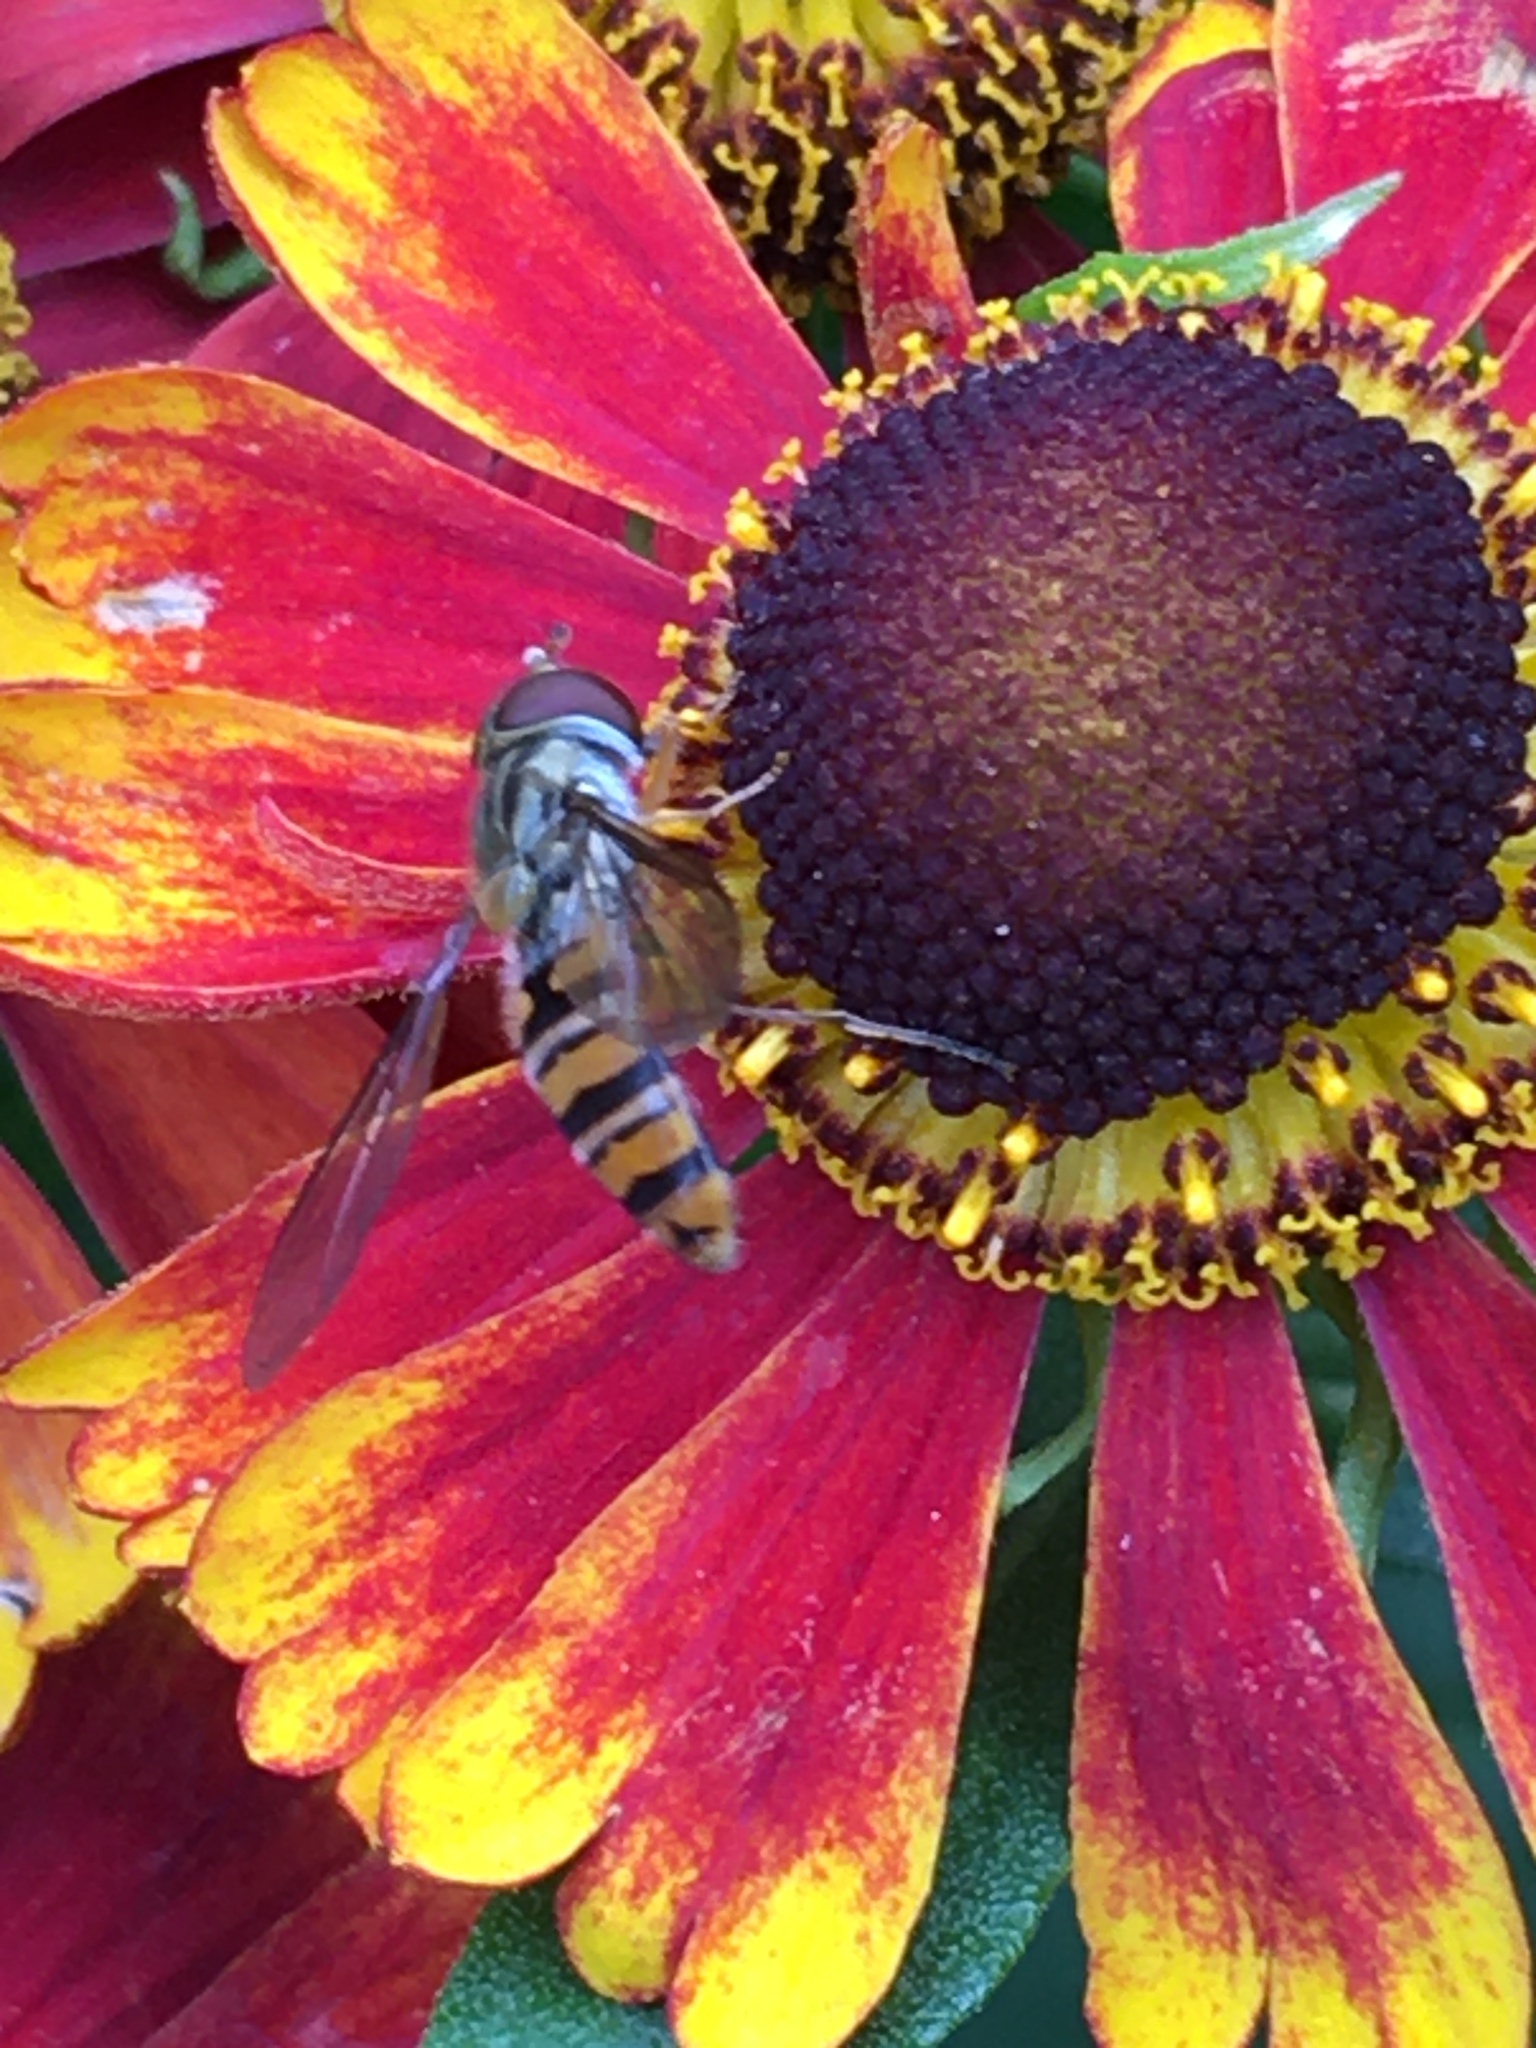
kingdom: Animalia
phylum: Arthropoda
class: Insecta
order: Diptera
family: Syrphidae
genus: Episyrphus
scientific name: Episyrphus balteatus
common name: Marmalade hoverfly
